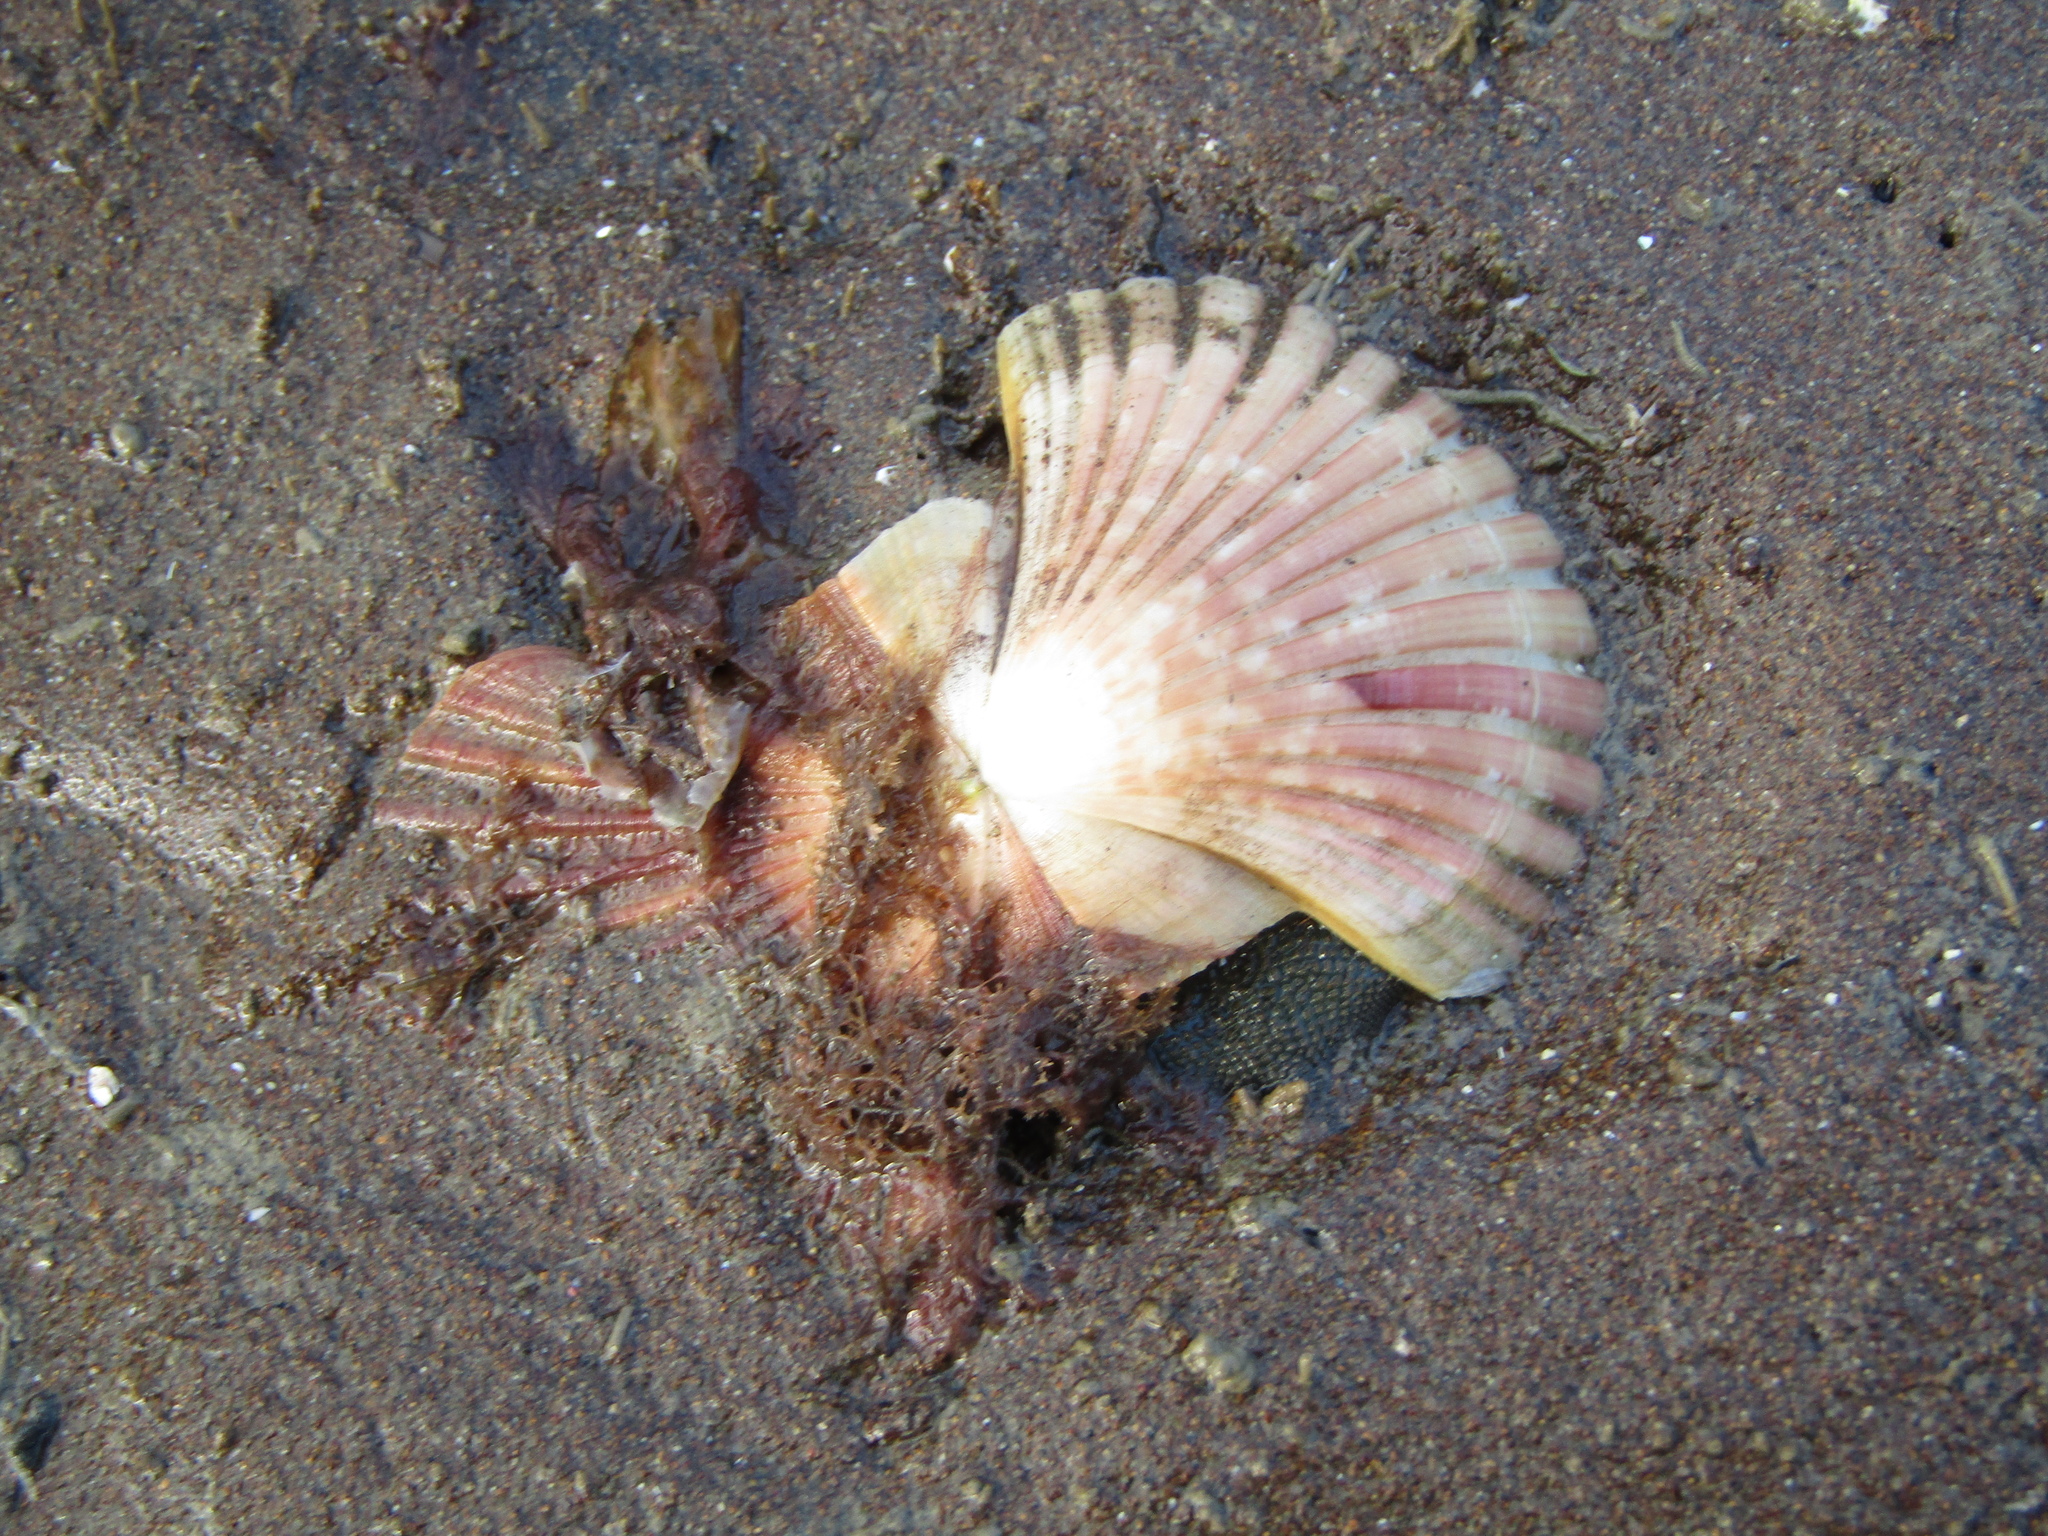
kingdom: Animalia
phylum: Mollusca
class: Bivalvia
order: Pectinida
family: Pectinidae
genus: Pecten
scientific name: Pecten novaezelandiae
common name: New zealand scallop
